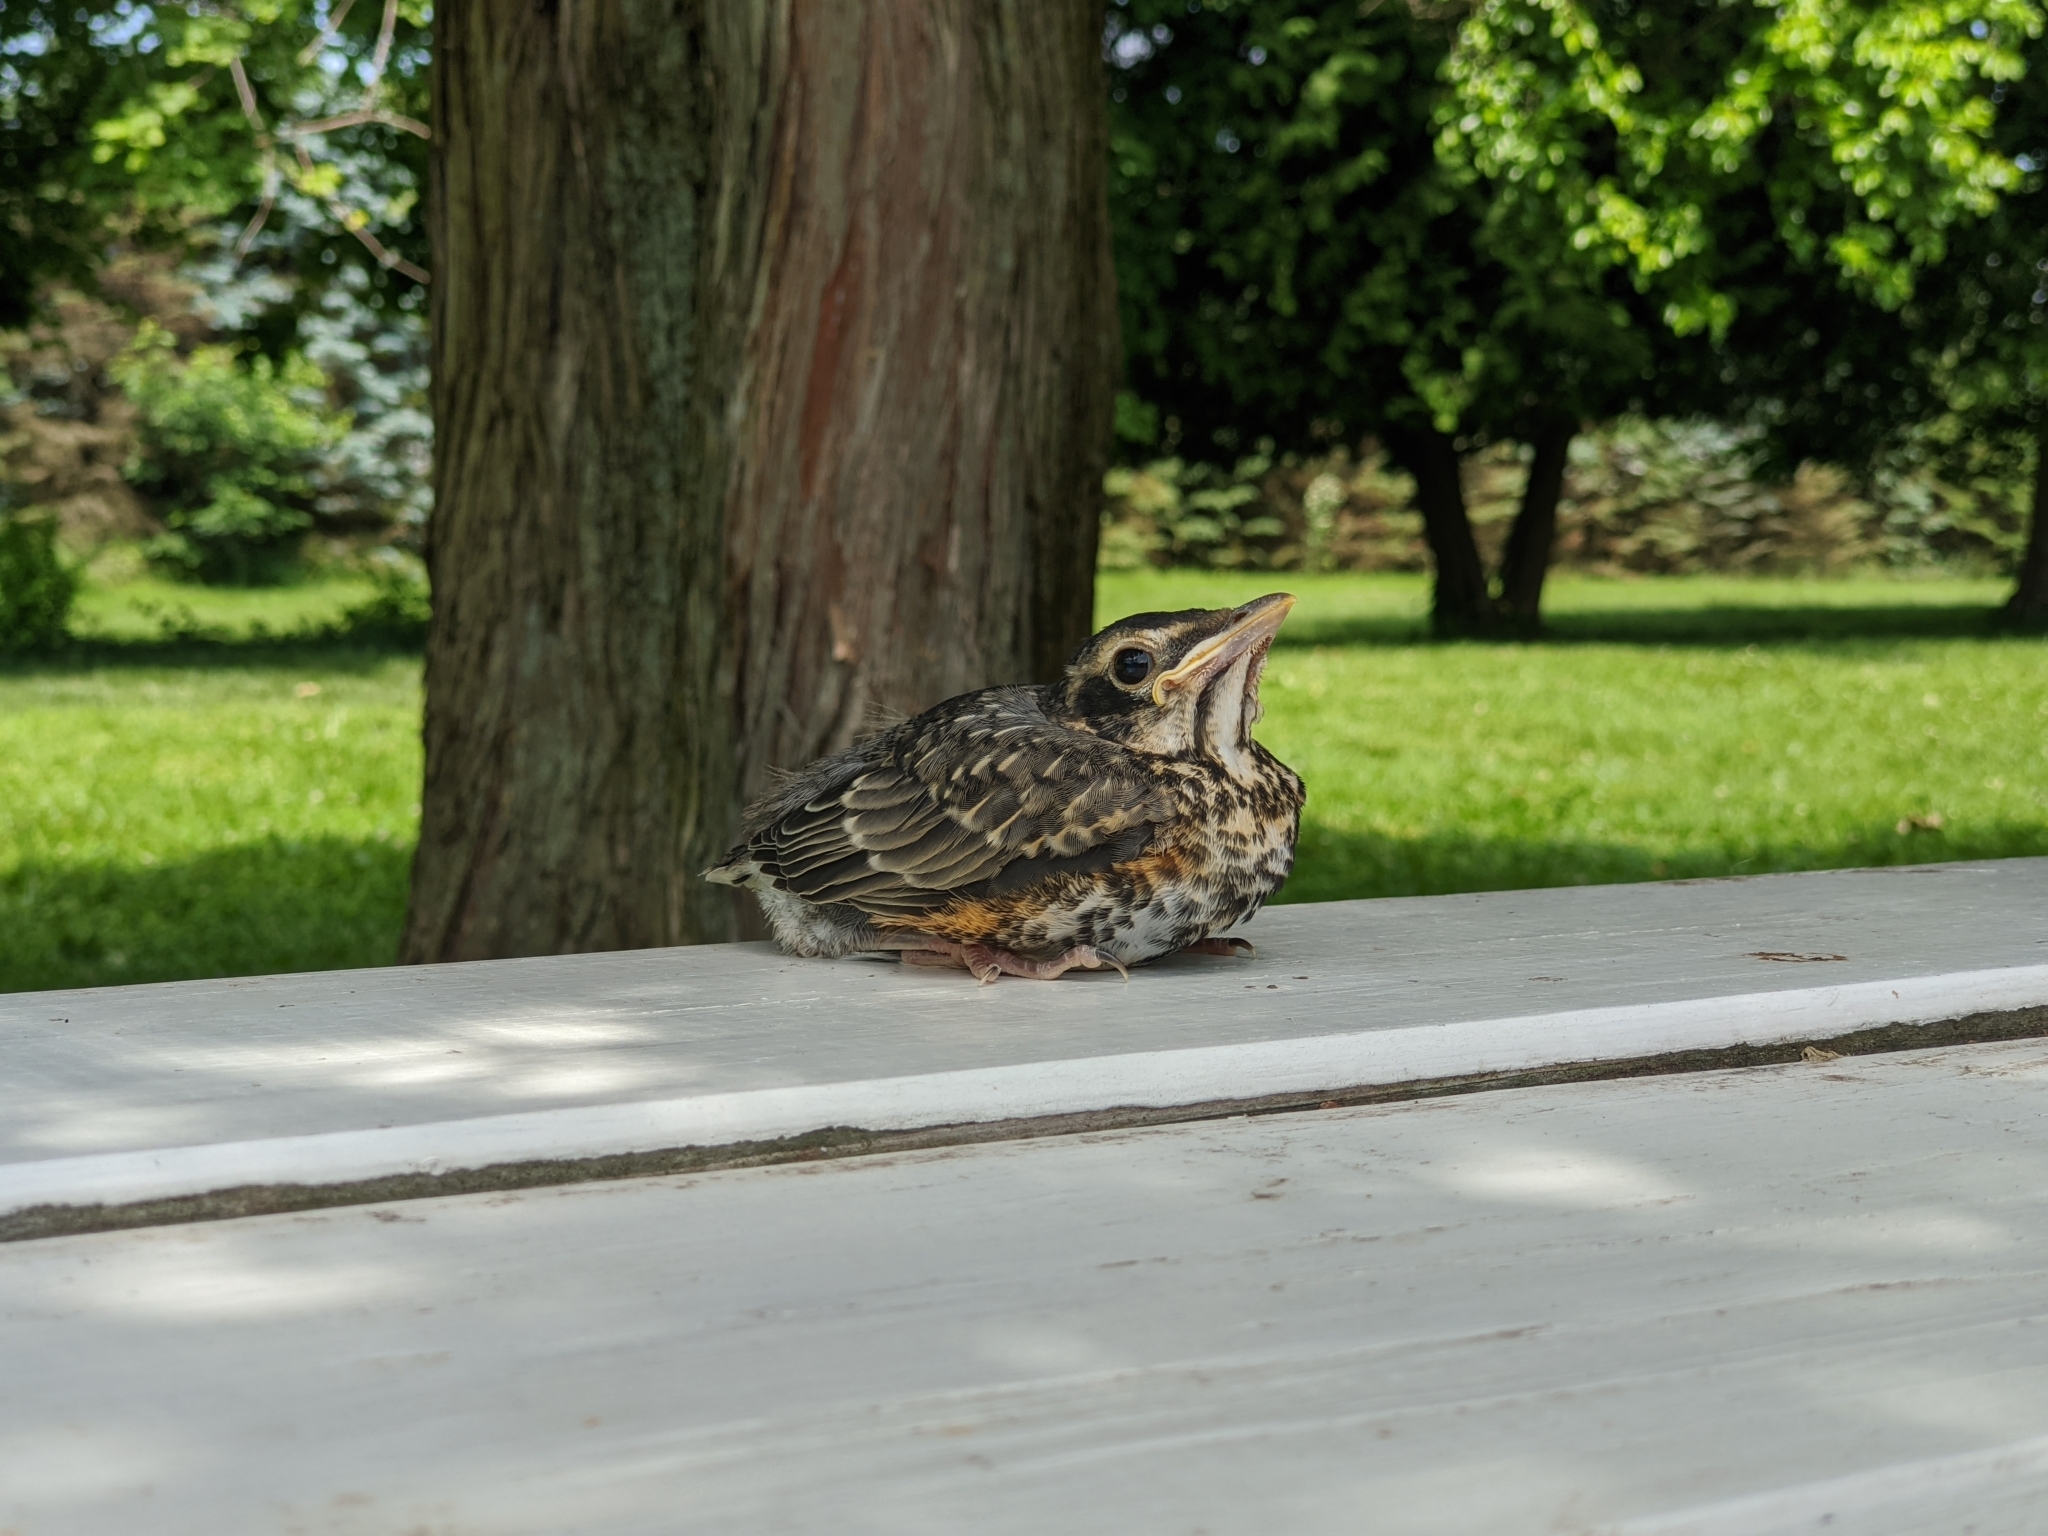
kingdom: Animalia
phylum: Chordata
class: Aves
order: Passeriformes
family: Turdidae
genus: Turdus
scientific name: Turdus migratorius
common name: American robin
